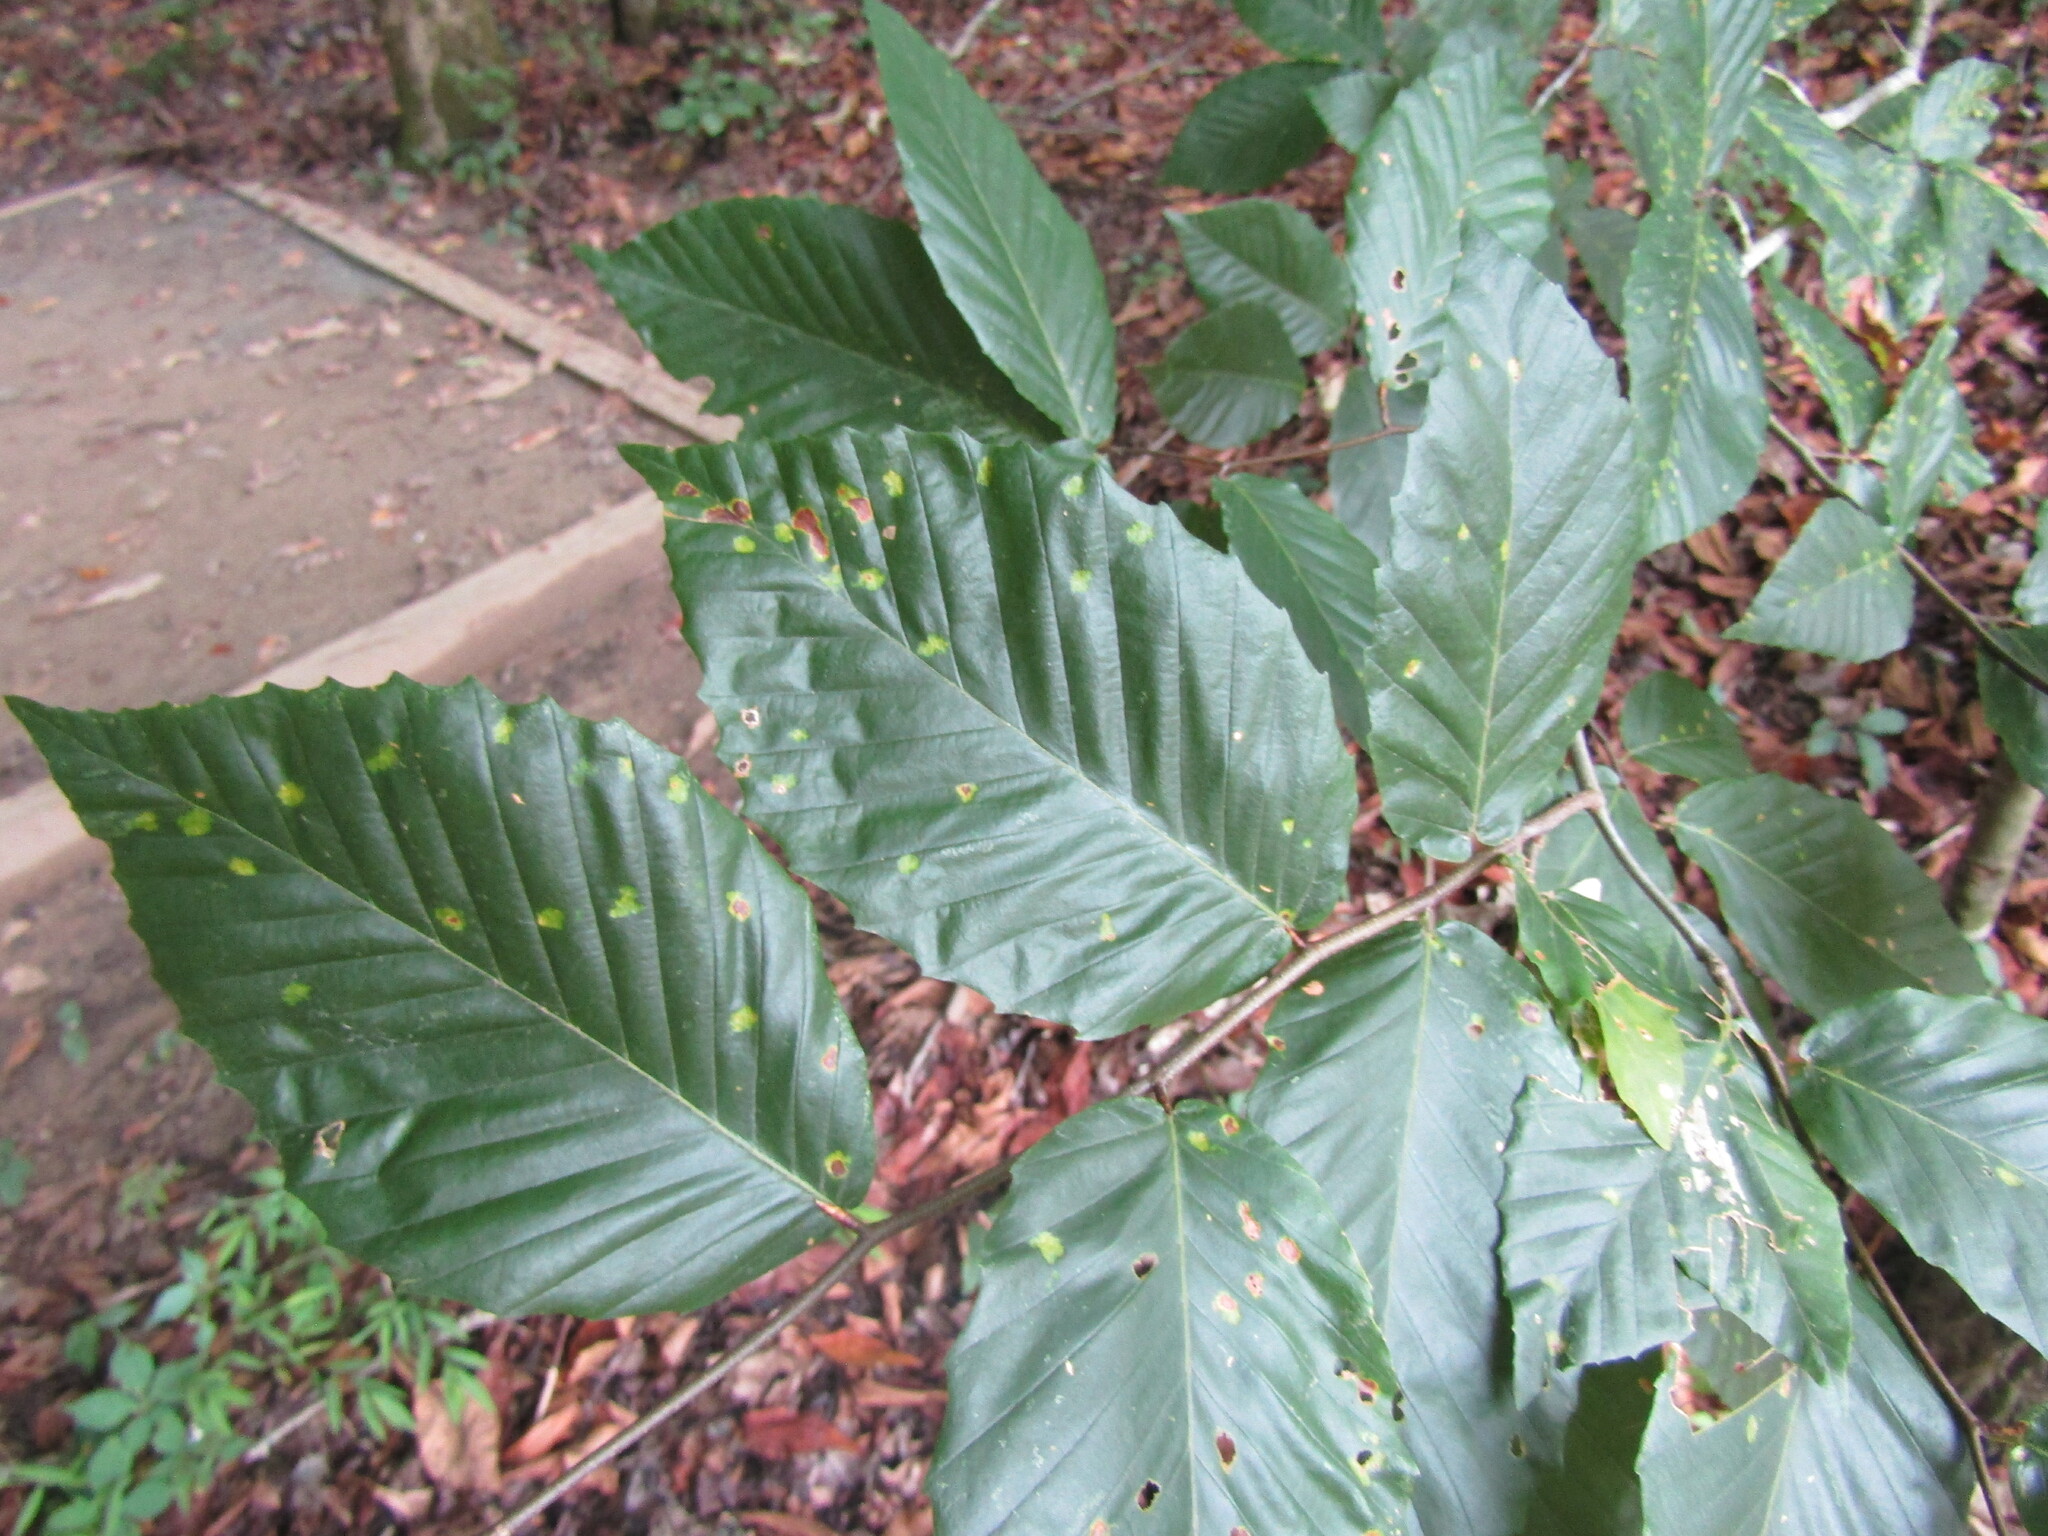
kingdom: Plantae
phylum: Tracheophyta
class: Magnoliopsida
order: Fagales
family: Fagaceae
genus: Fagus
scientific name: Fagus grandifolia
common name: American beech
